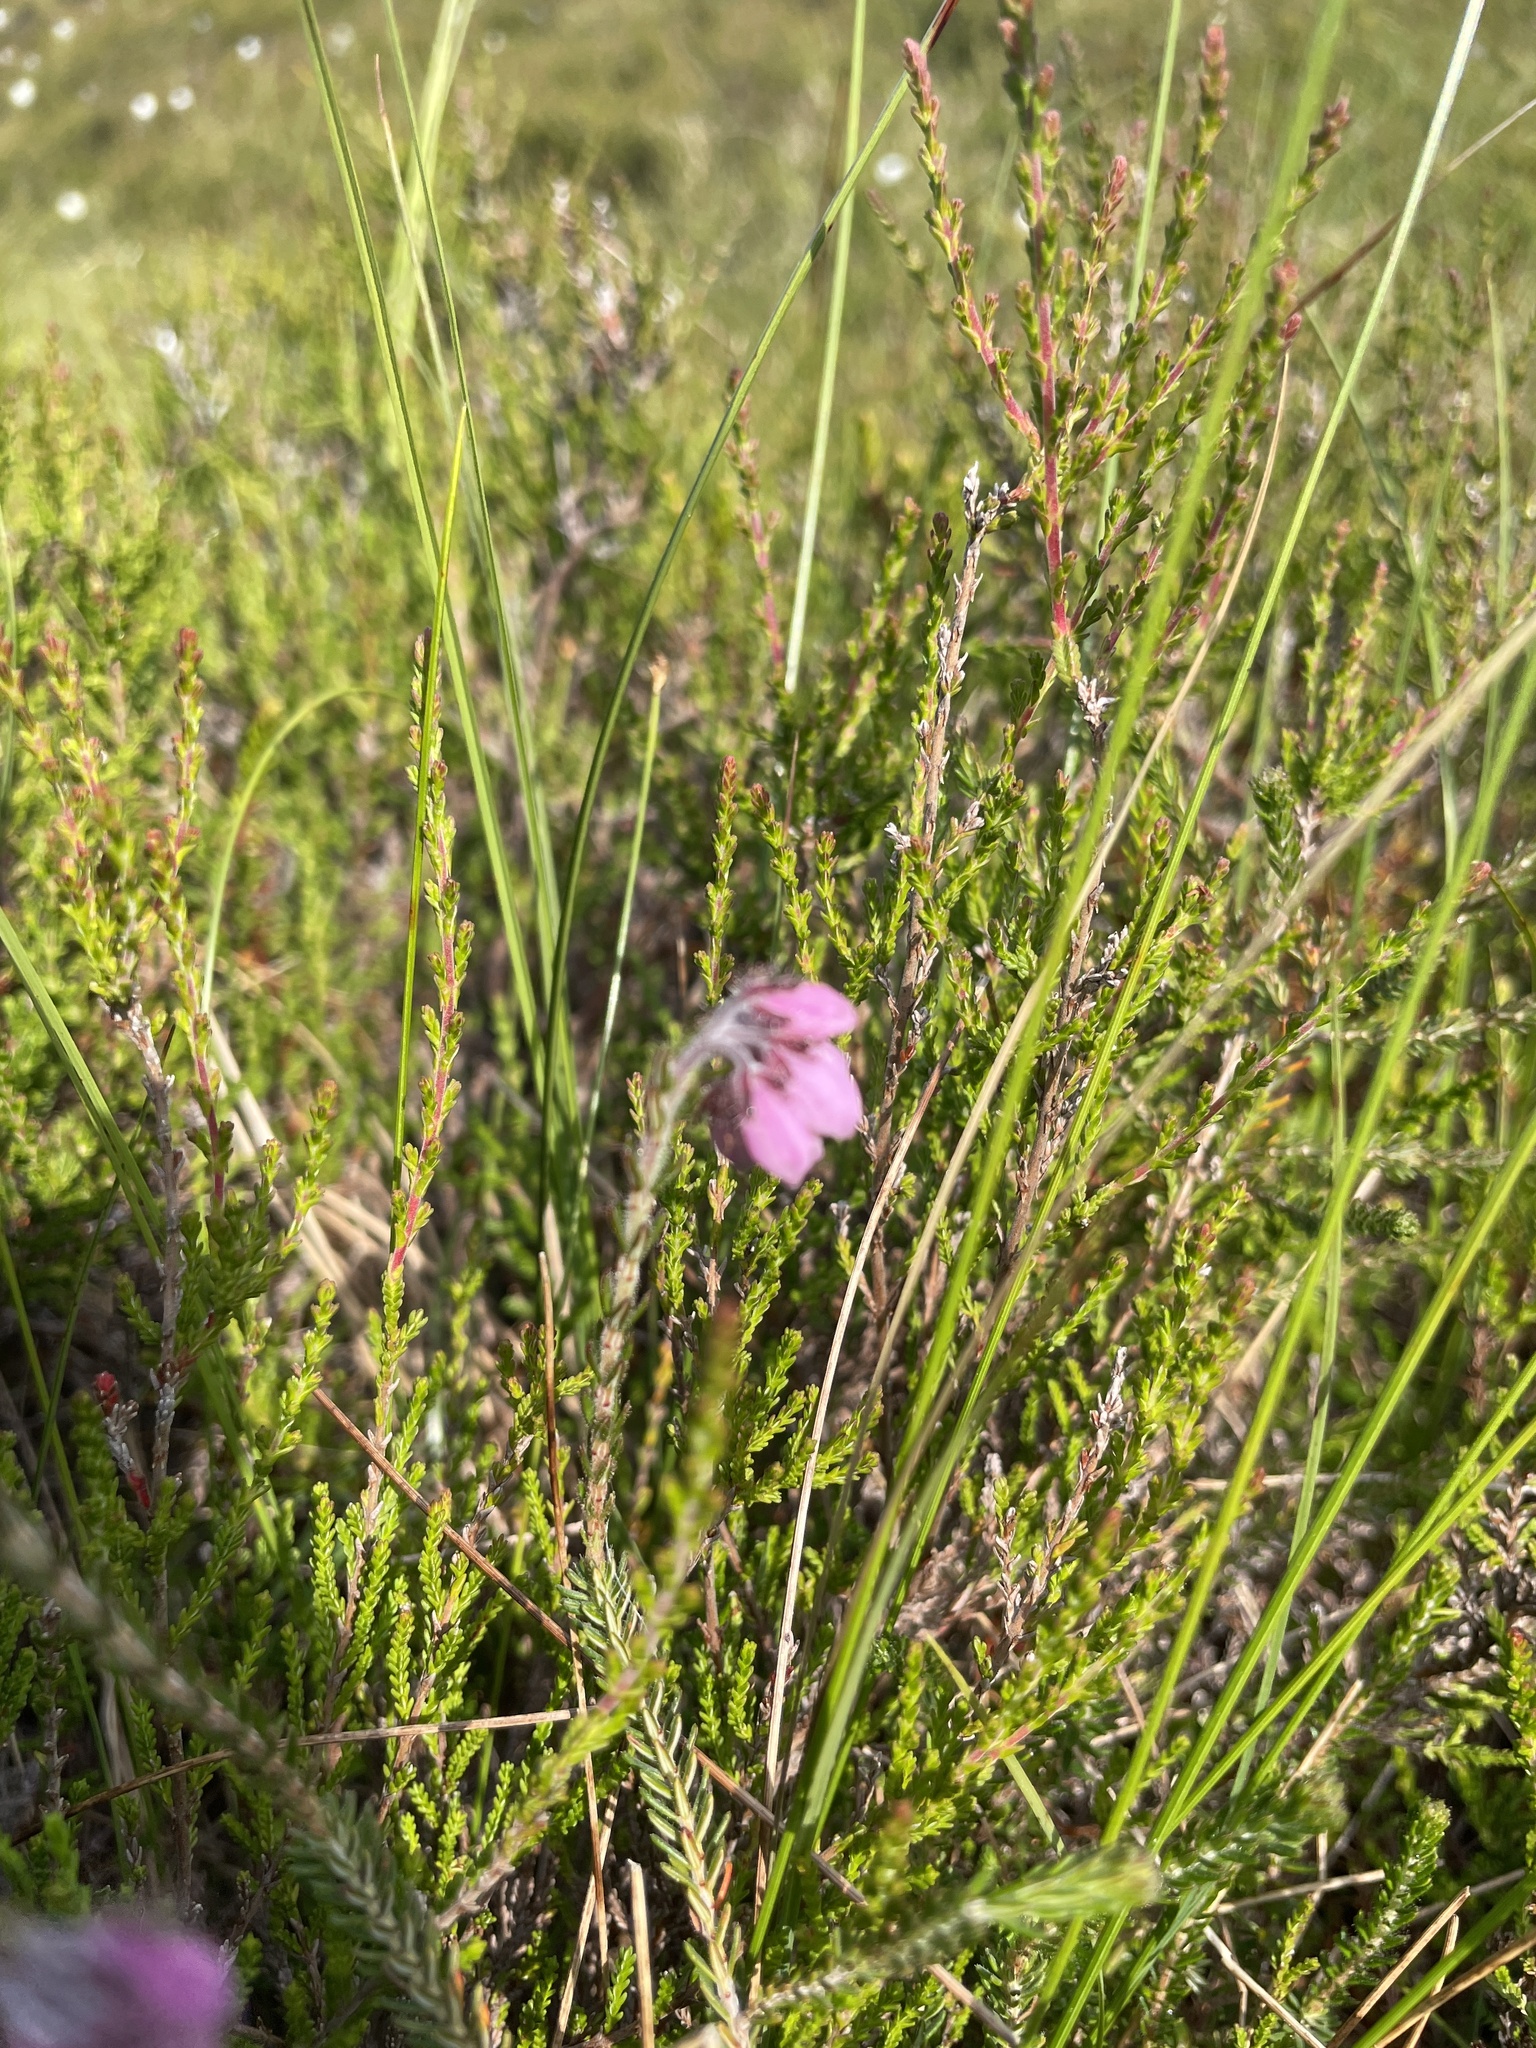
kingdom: Plantae
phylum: Tracheophyta
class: Magnoliopsida
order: Ericales
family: Ericaceae
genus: Erica
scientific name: Erica tetralix
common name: Cross-leaved heath
